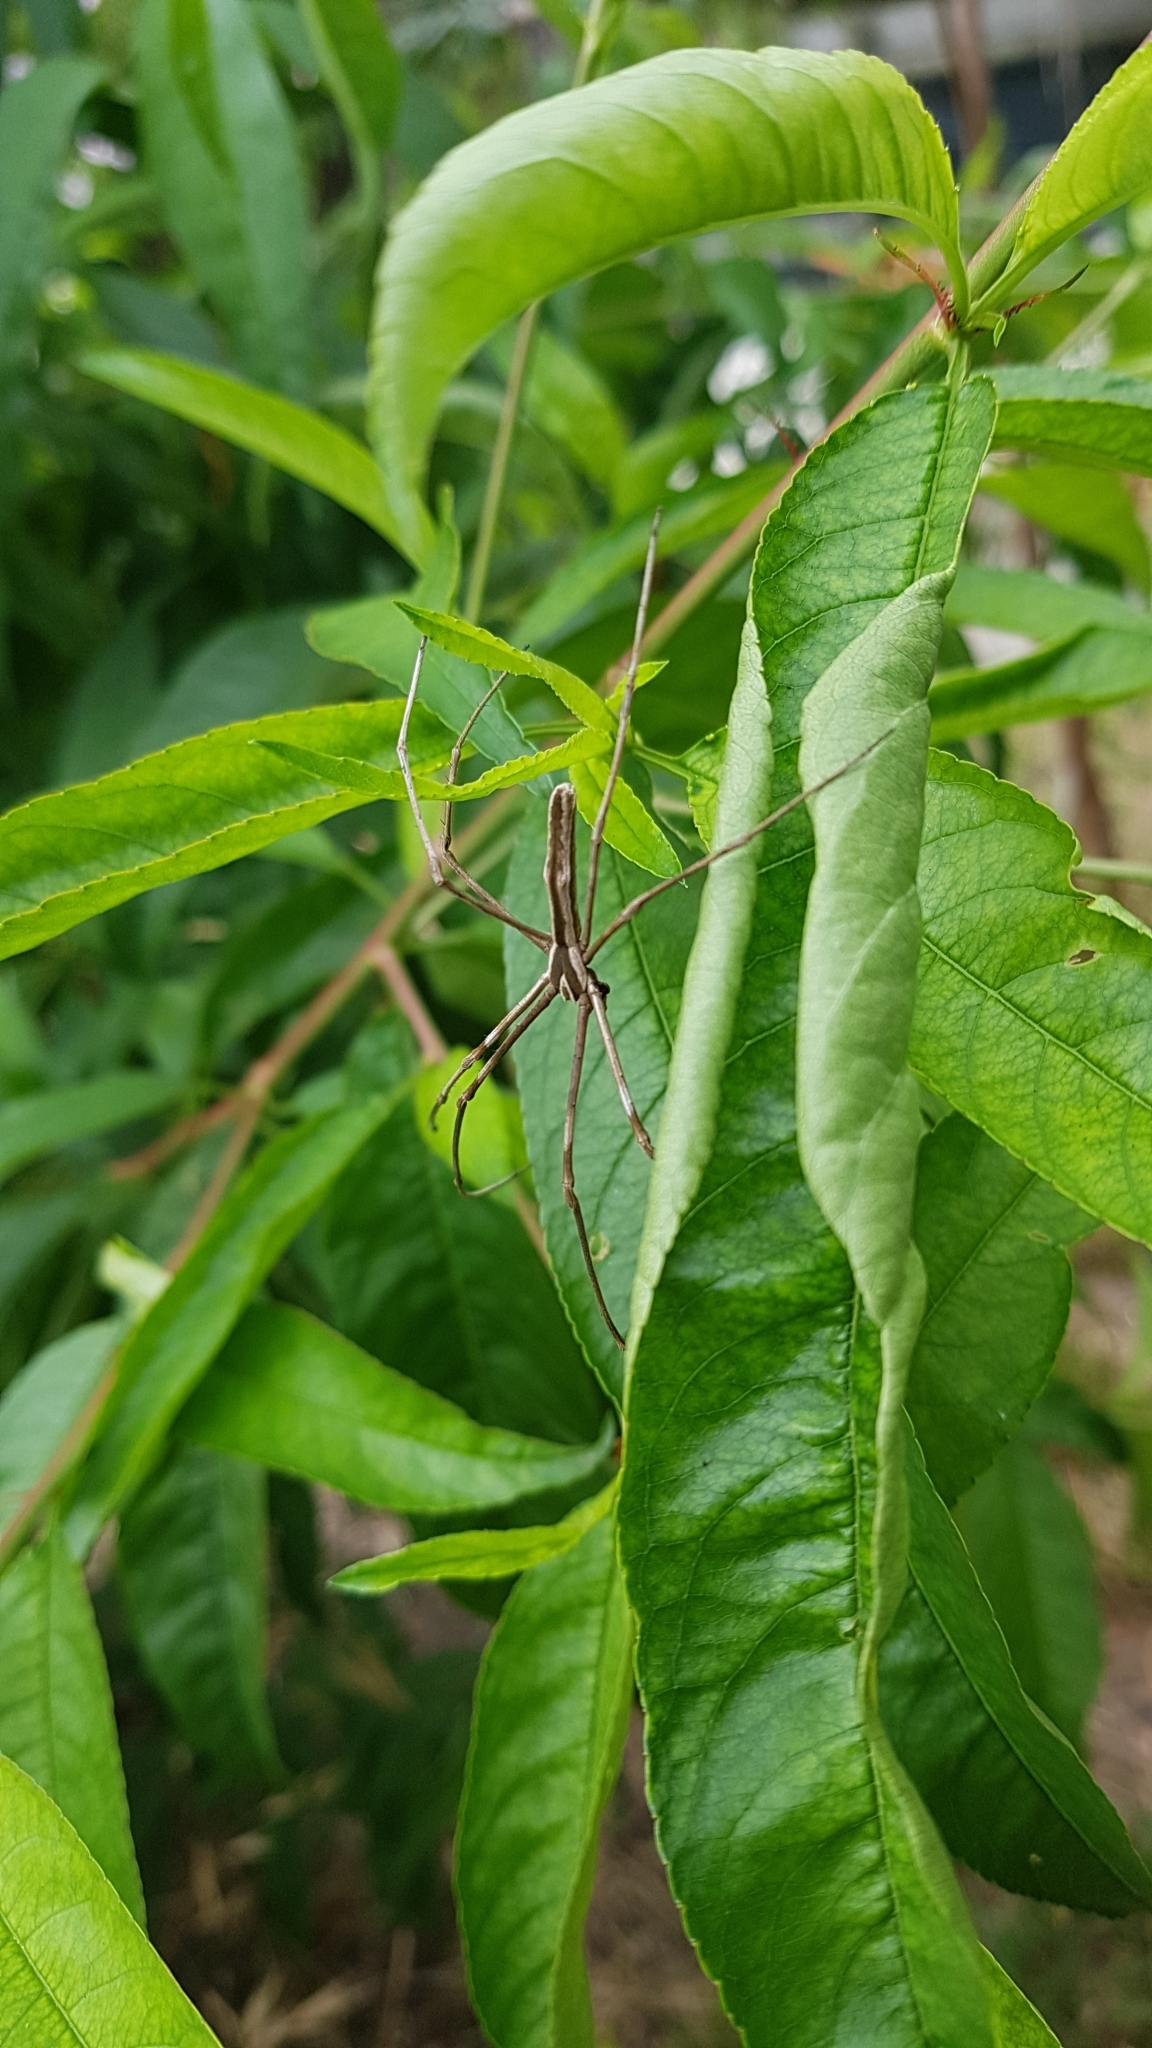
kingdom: Animalia
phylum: Arthropoda
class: Arachnida
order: Araneae
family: Deinopidae
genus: Deinopis
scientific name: Deinopis subrufa
